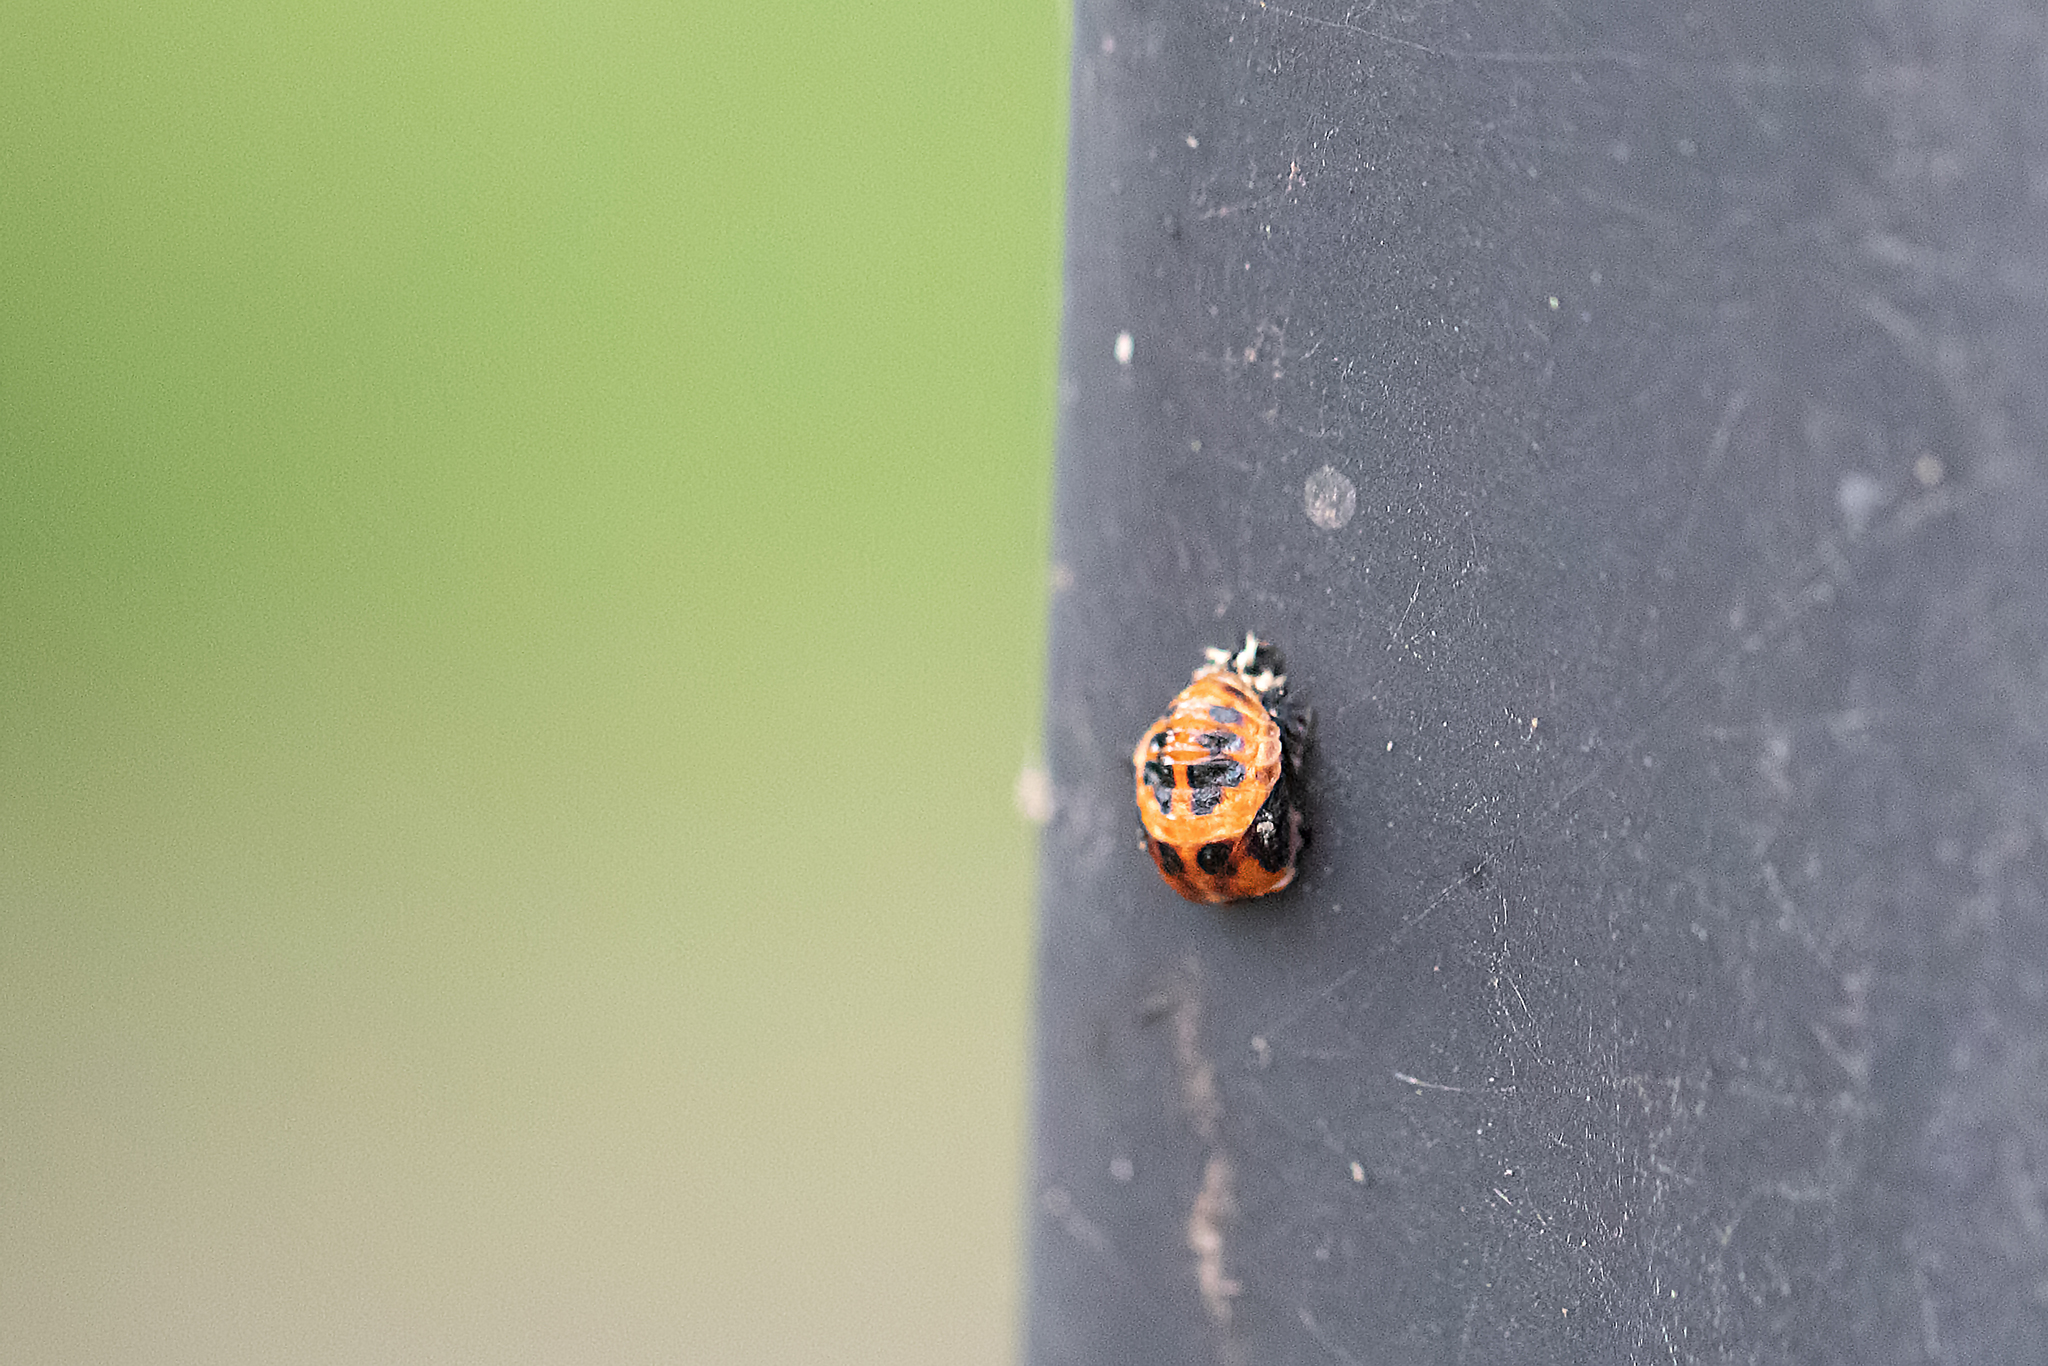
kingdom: Animalia
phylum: Arthropoda
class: Insecta
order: Coleoptera
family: Coccinellidae
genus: Harmonia
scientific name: Harmonia axyridis
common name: Harlequin ladybird
